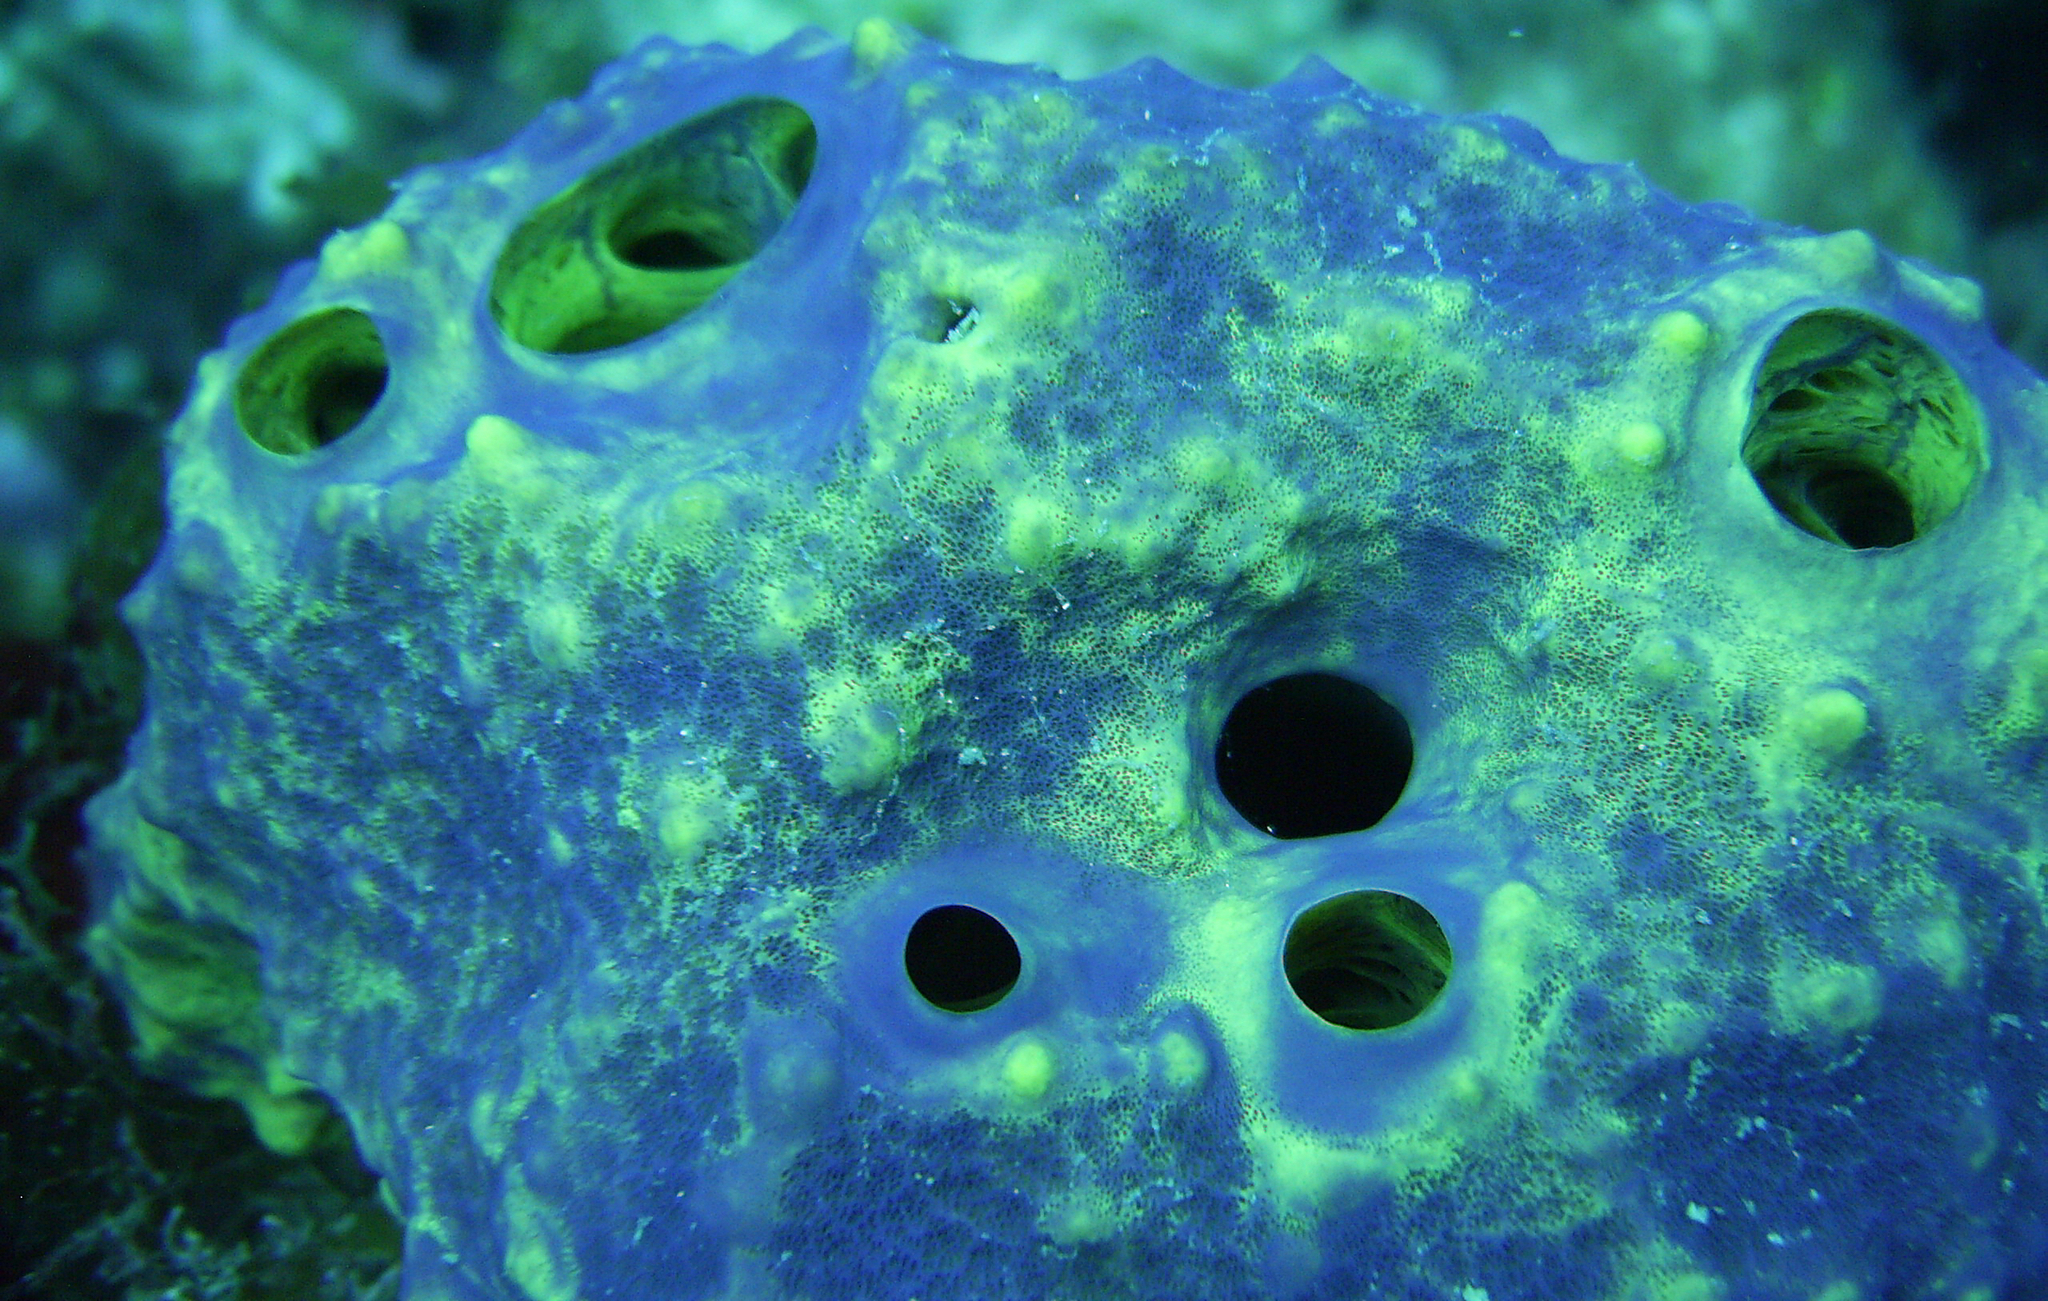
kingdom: Animalia
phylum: Porifera
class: Demospongiae
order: Verongiida
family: Aplysinidae
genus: Aiolochroia
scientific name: Aiolochroia crassa
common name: Branching tube sponge
